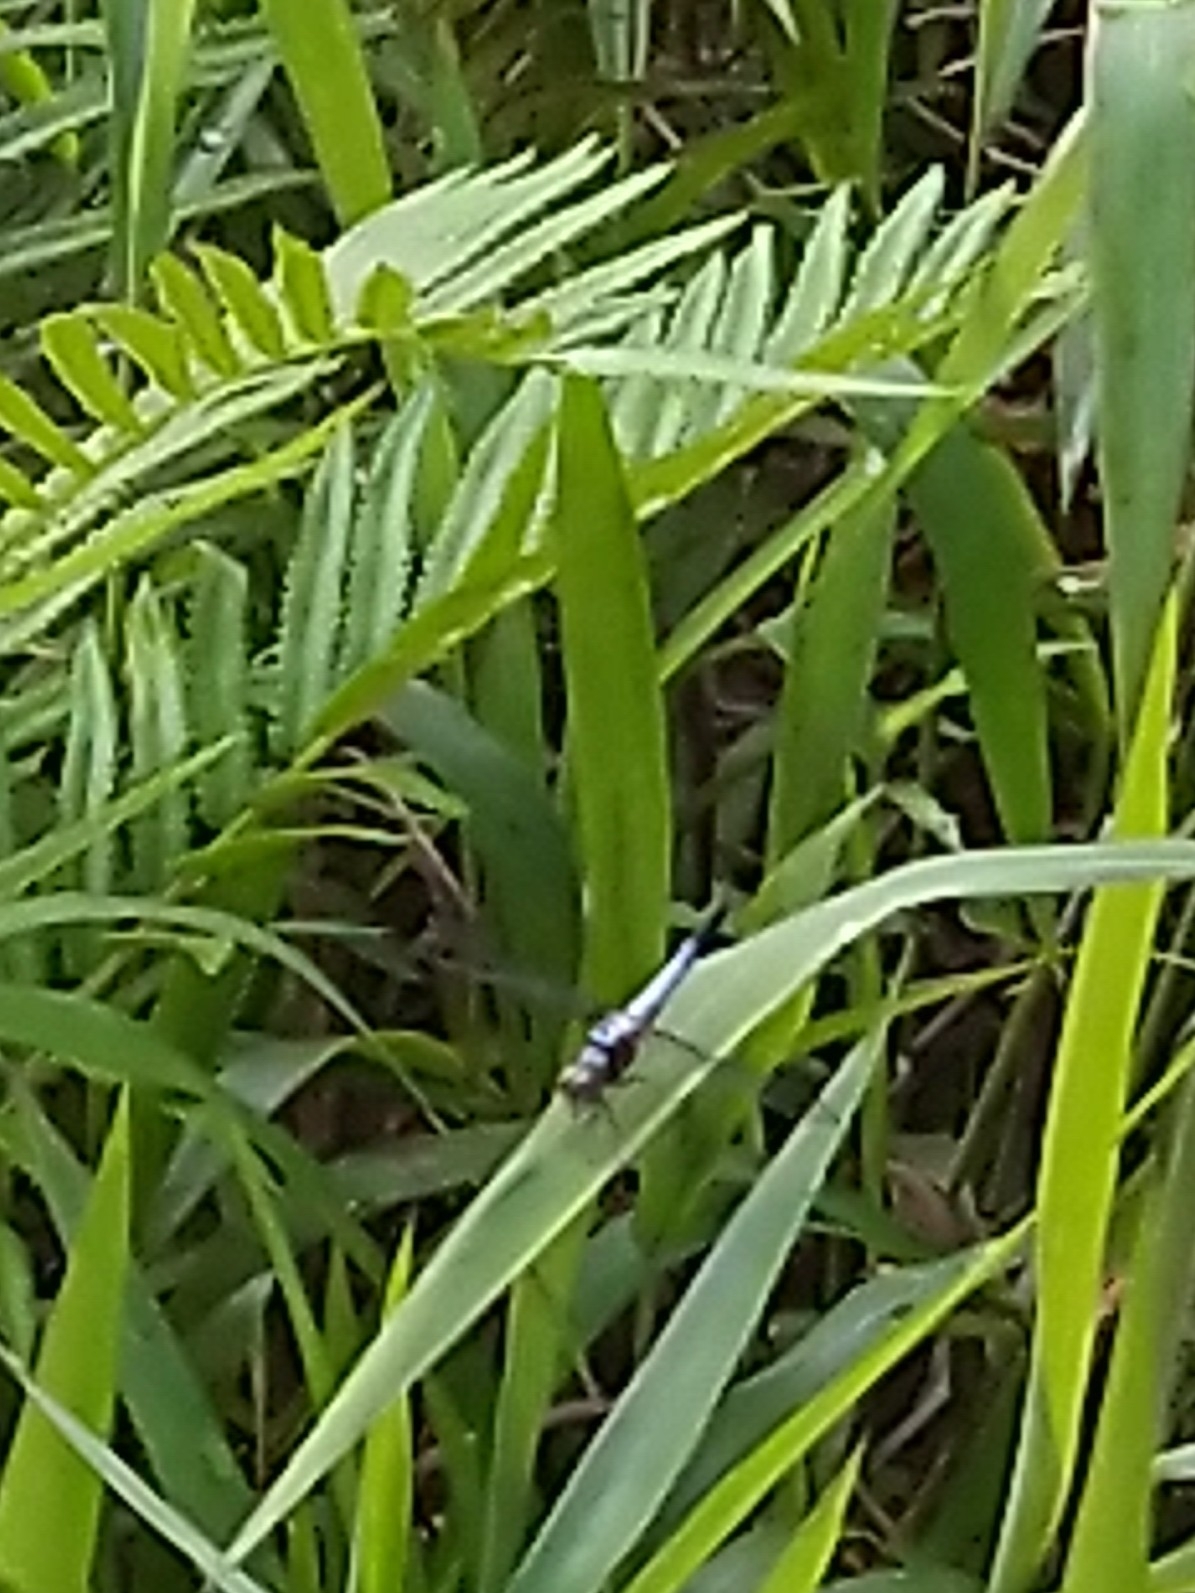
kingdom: Animalia
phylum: Arthropoda
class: Insecta
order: Odonata
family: Libellulidae
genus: Brachydiplax
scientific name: Brachydiplax chalybea
